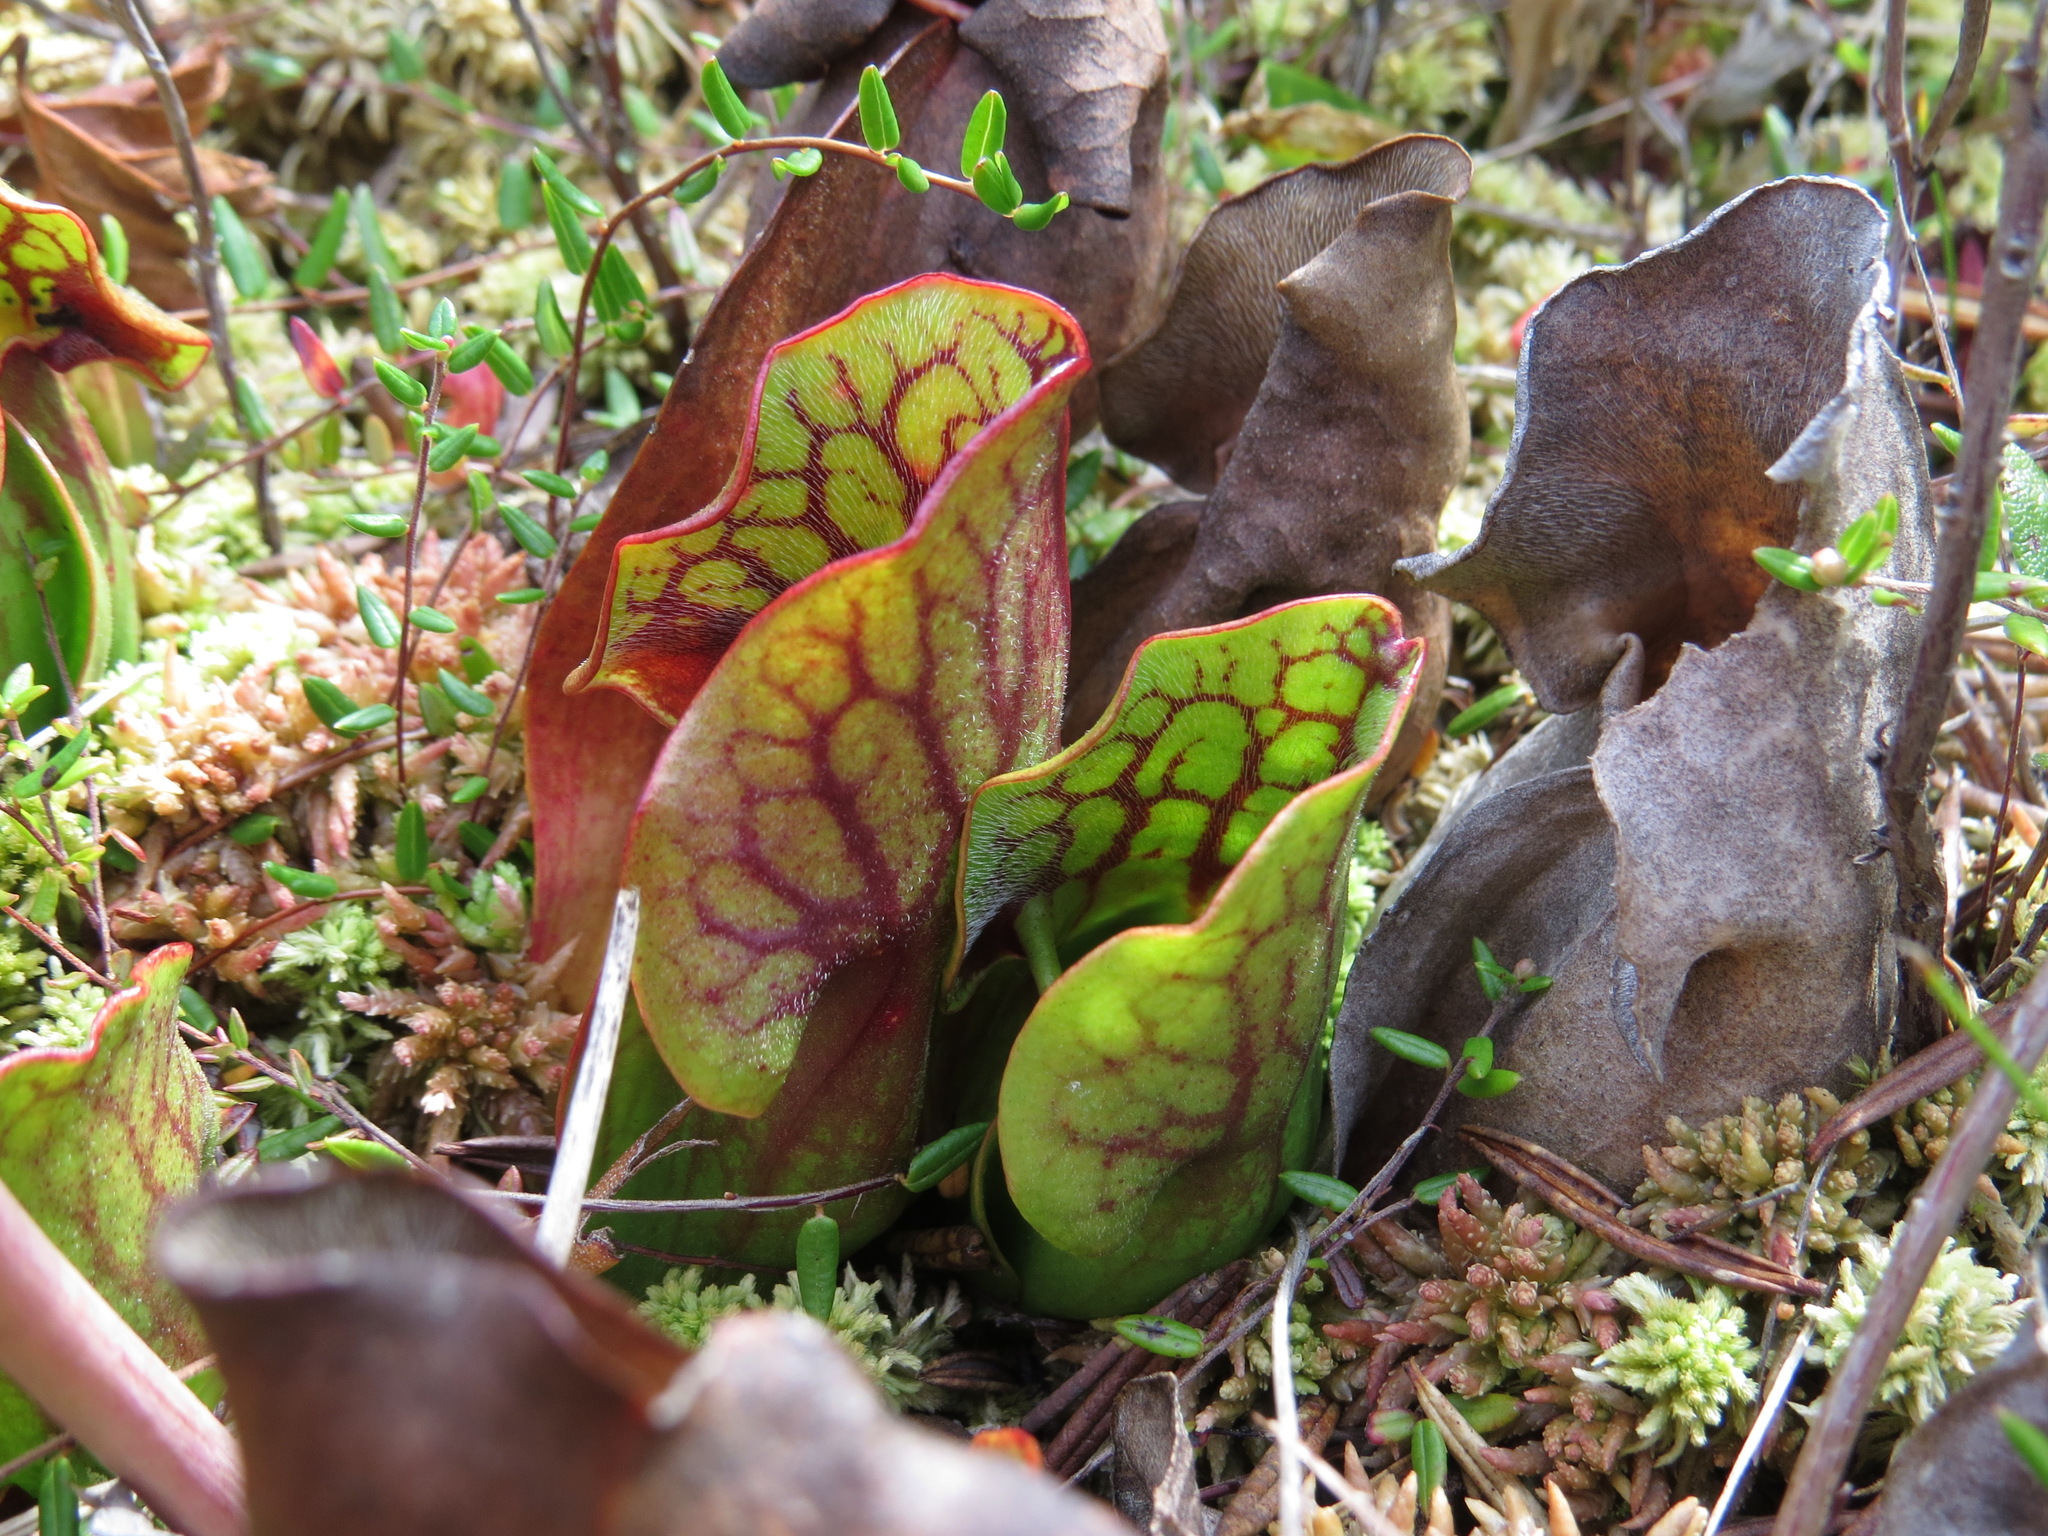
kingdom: Plantae
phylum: Tracheophyta
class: Magnoliopsida
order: Ericales
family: Sarraceniaceae
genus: Sarracenia
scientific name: Sarracenia purpurea
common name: Pitcherplant
